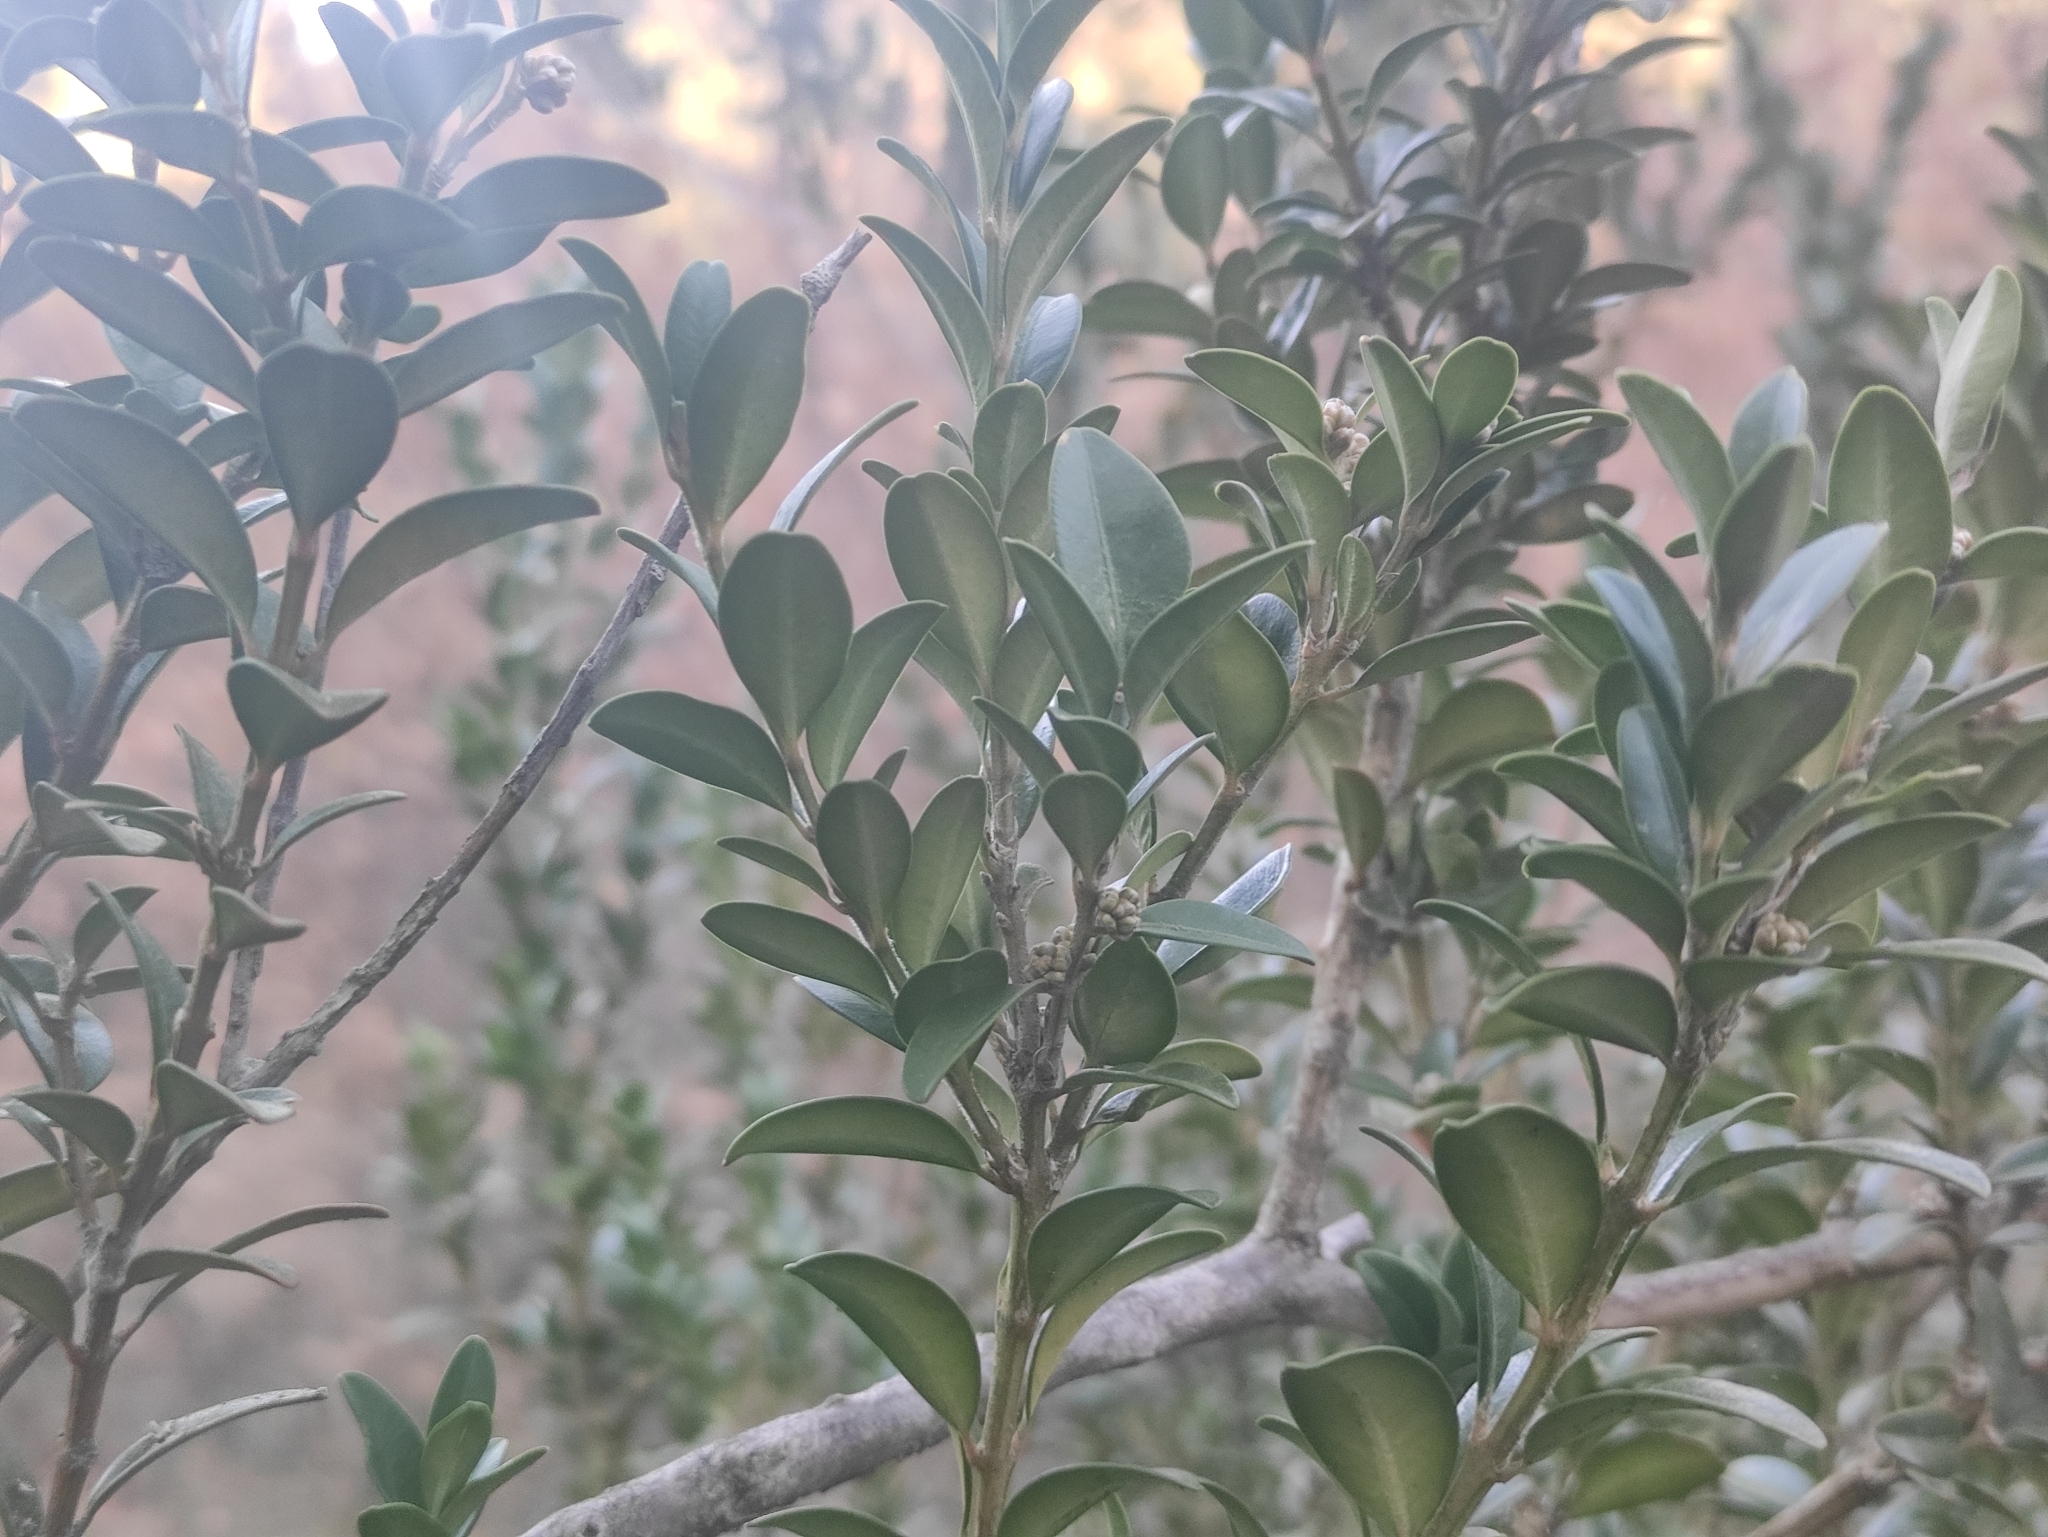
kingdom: Plantae
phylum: Tracheophyta
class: Magnoliopsida
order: Buxales
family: Buxaceae
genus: Buxus
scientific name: Buxus sempervirens
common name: Box
